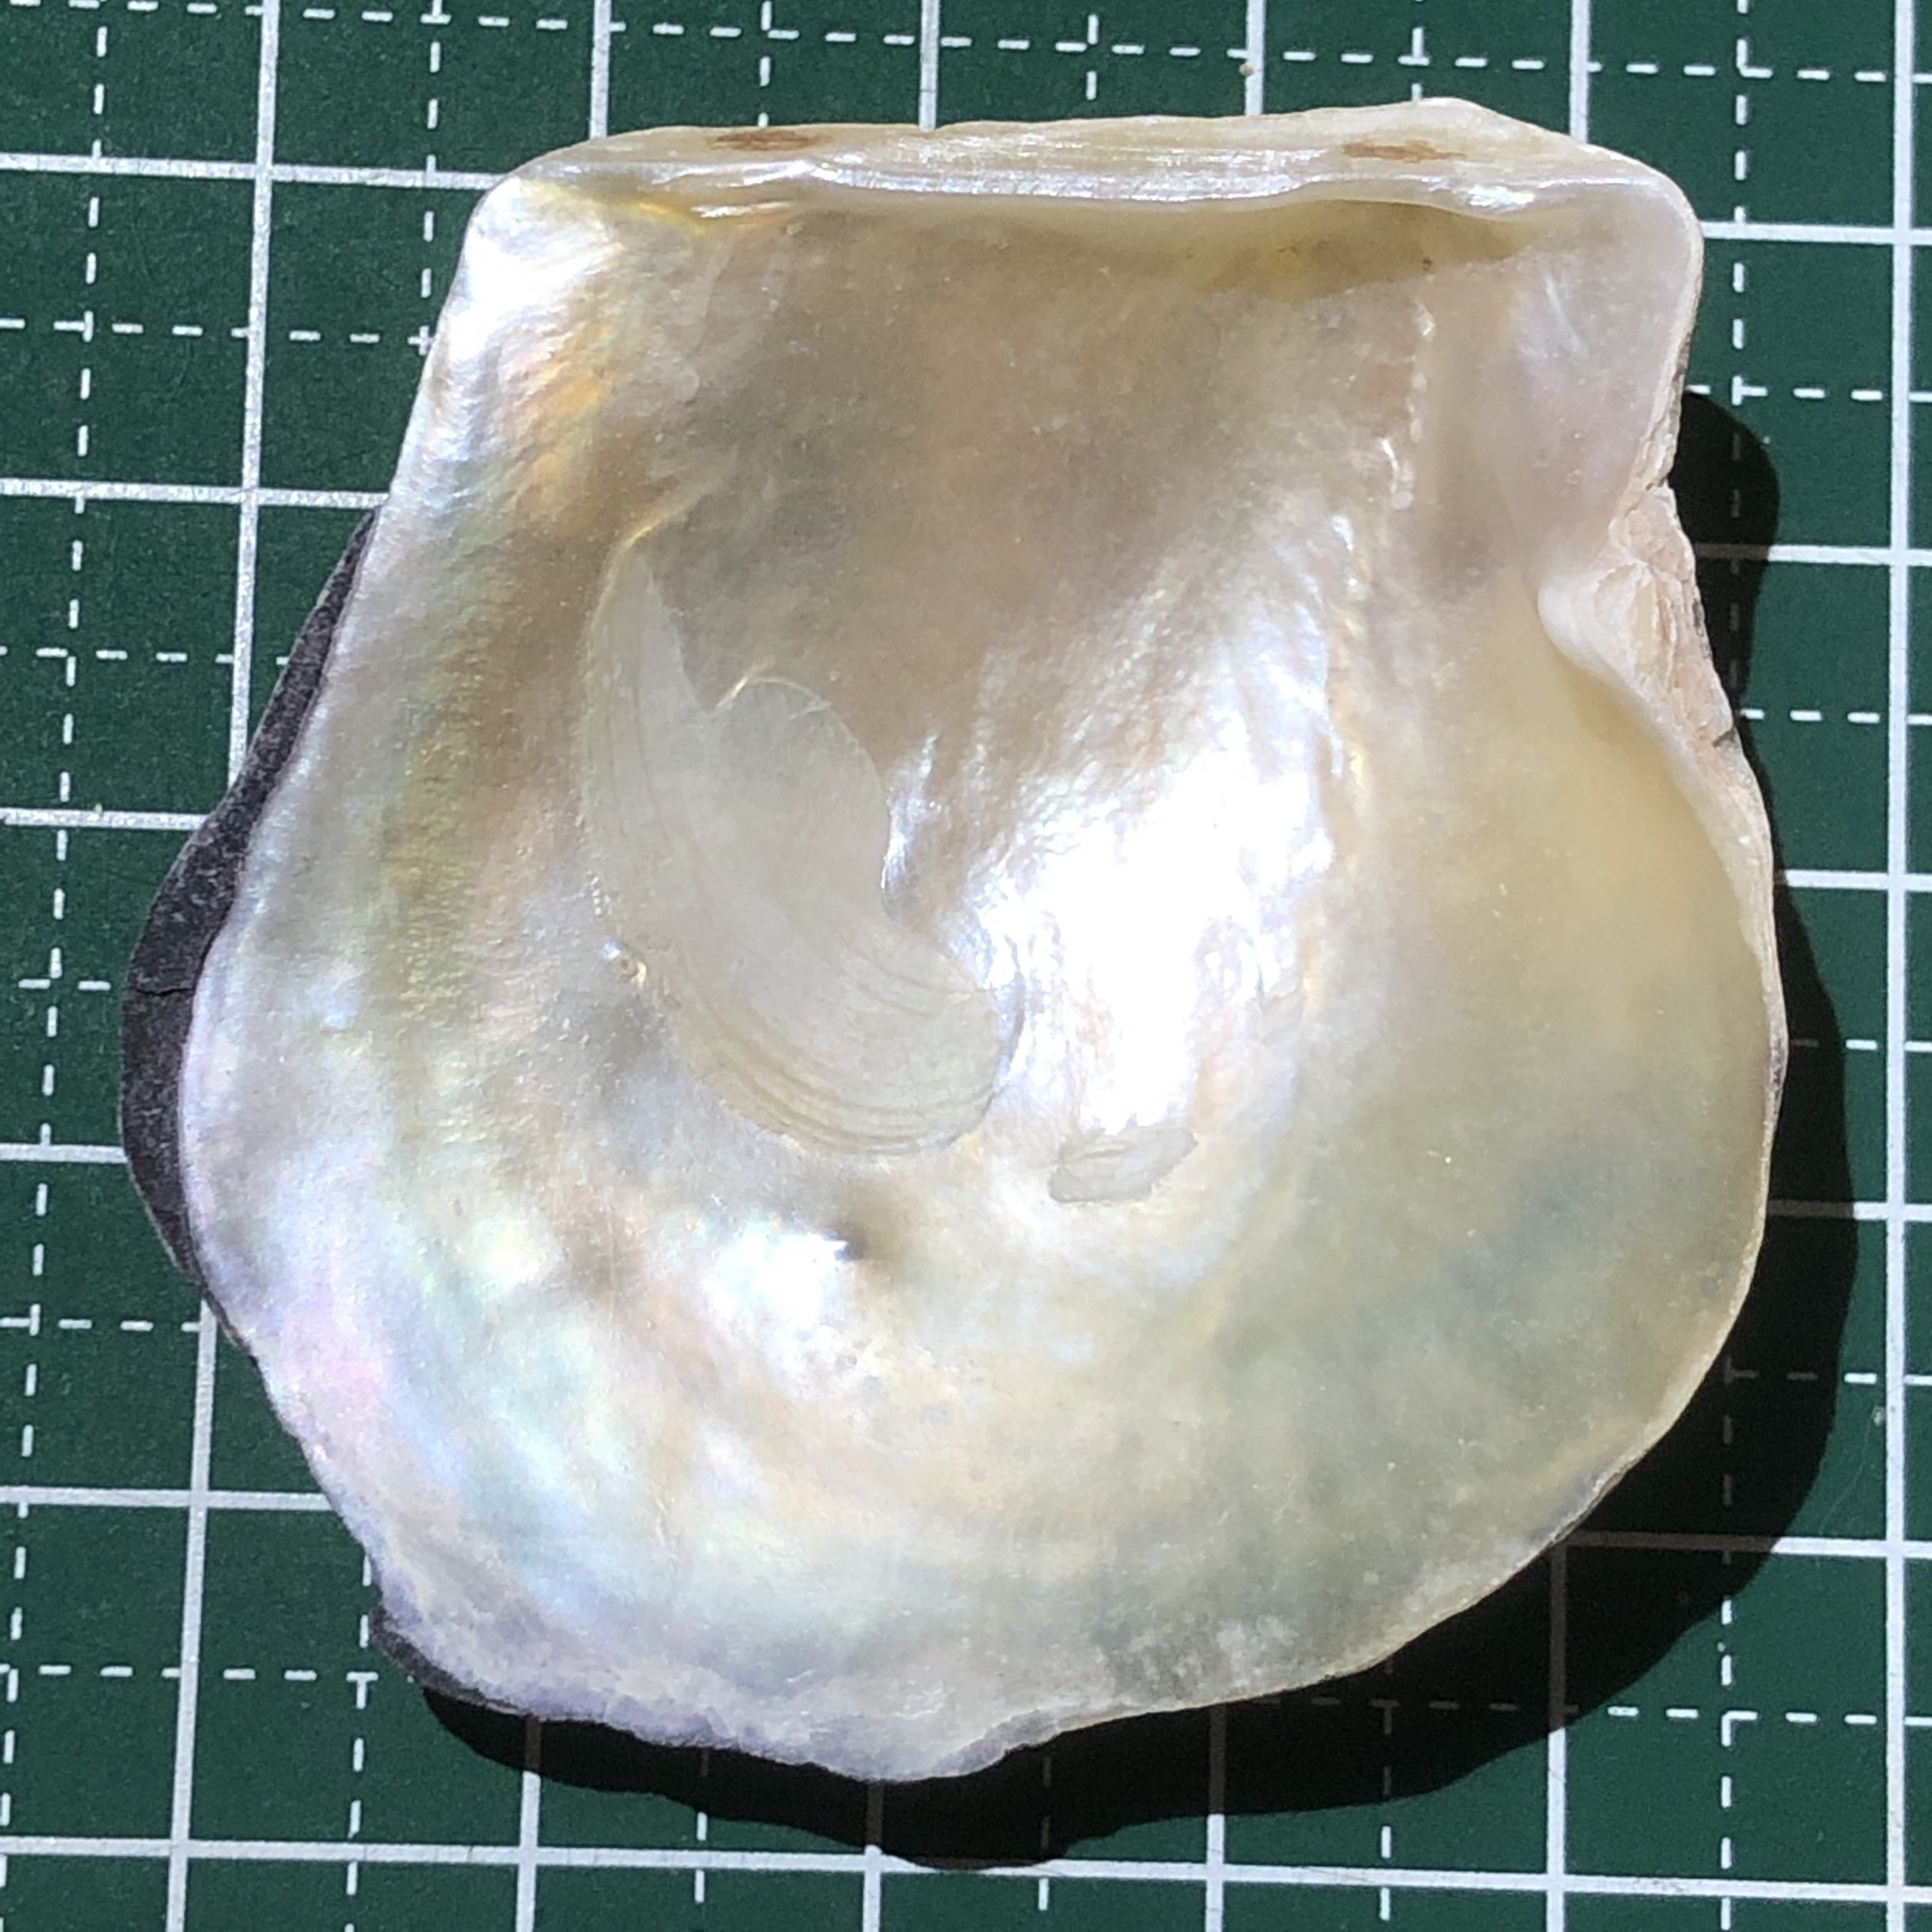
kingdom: Animalia
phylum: Mollusca
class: Bivalvia
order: Ostreida
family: Margaritidae
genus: Pinctada
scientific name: Pinctada imbricata
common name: Atlantic pearl-oyster
